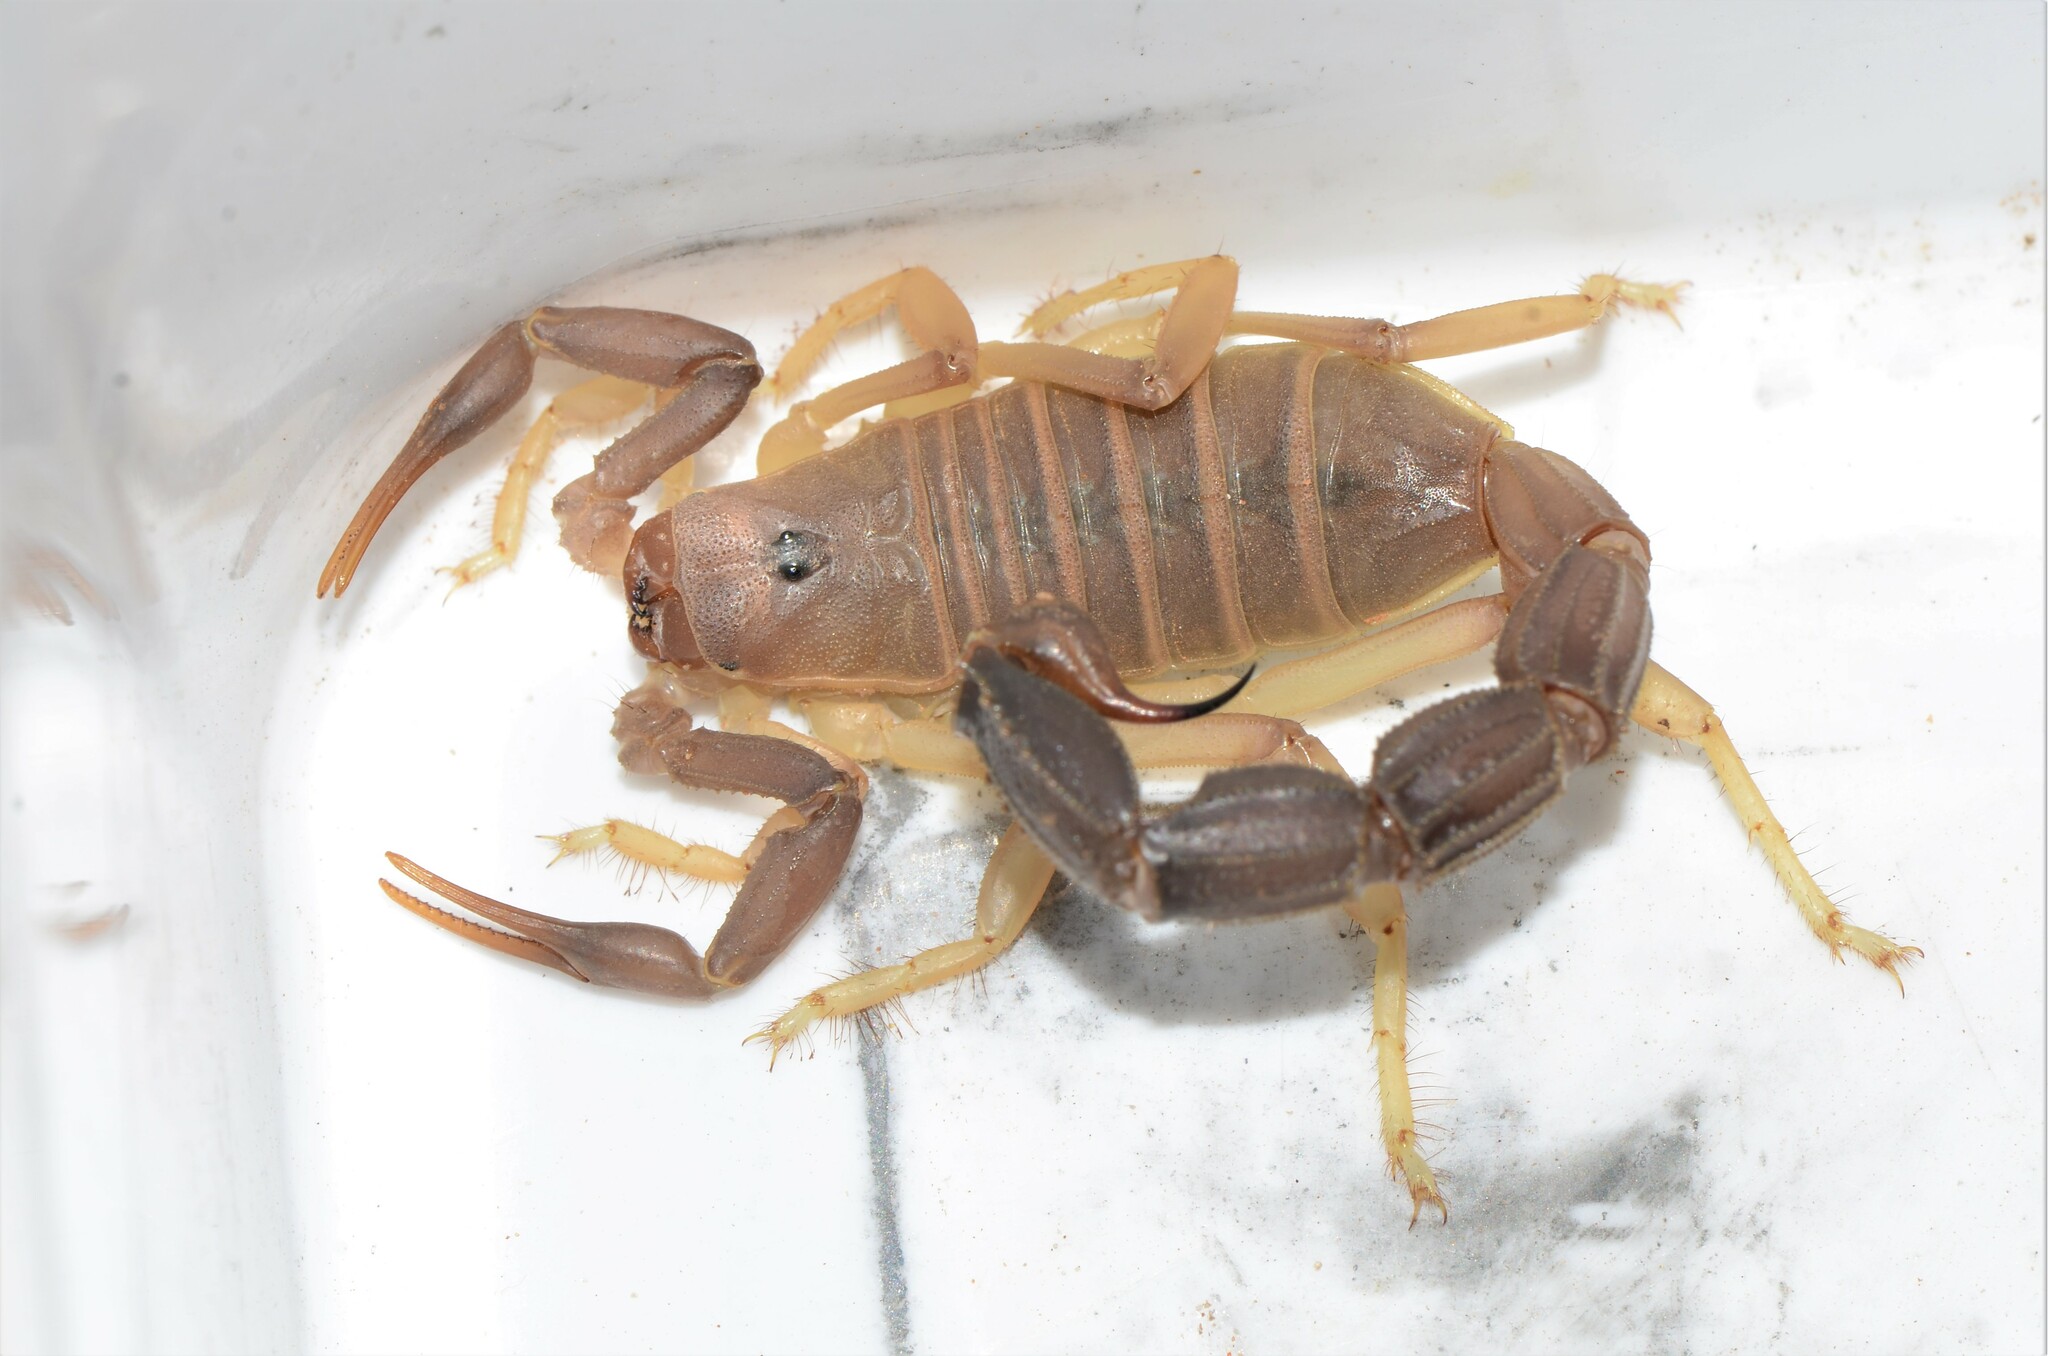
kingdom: Animalia
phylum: Arthropoda
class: Arachnida
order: Scorpiones
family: Buthidae
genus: Parabuthus
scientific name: Parabuthus granulatus
